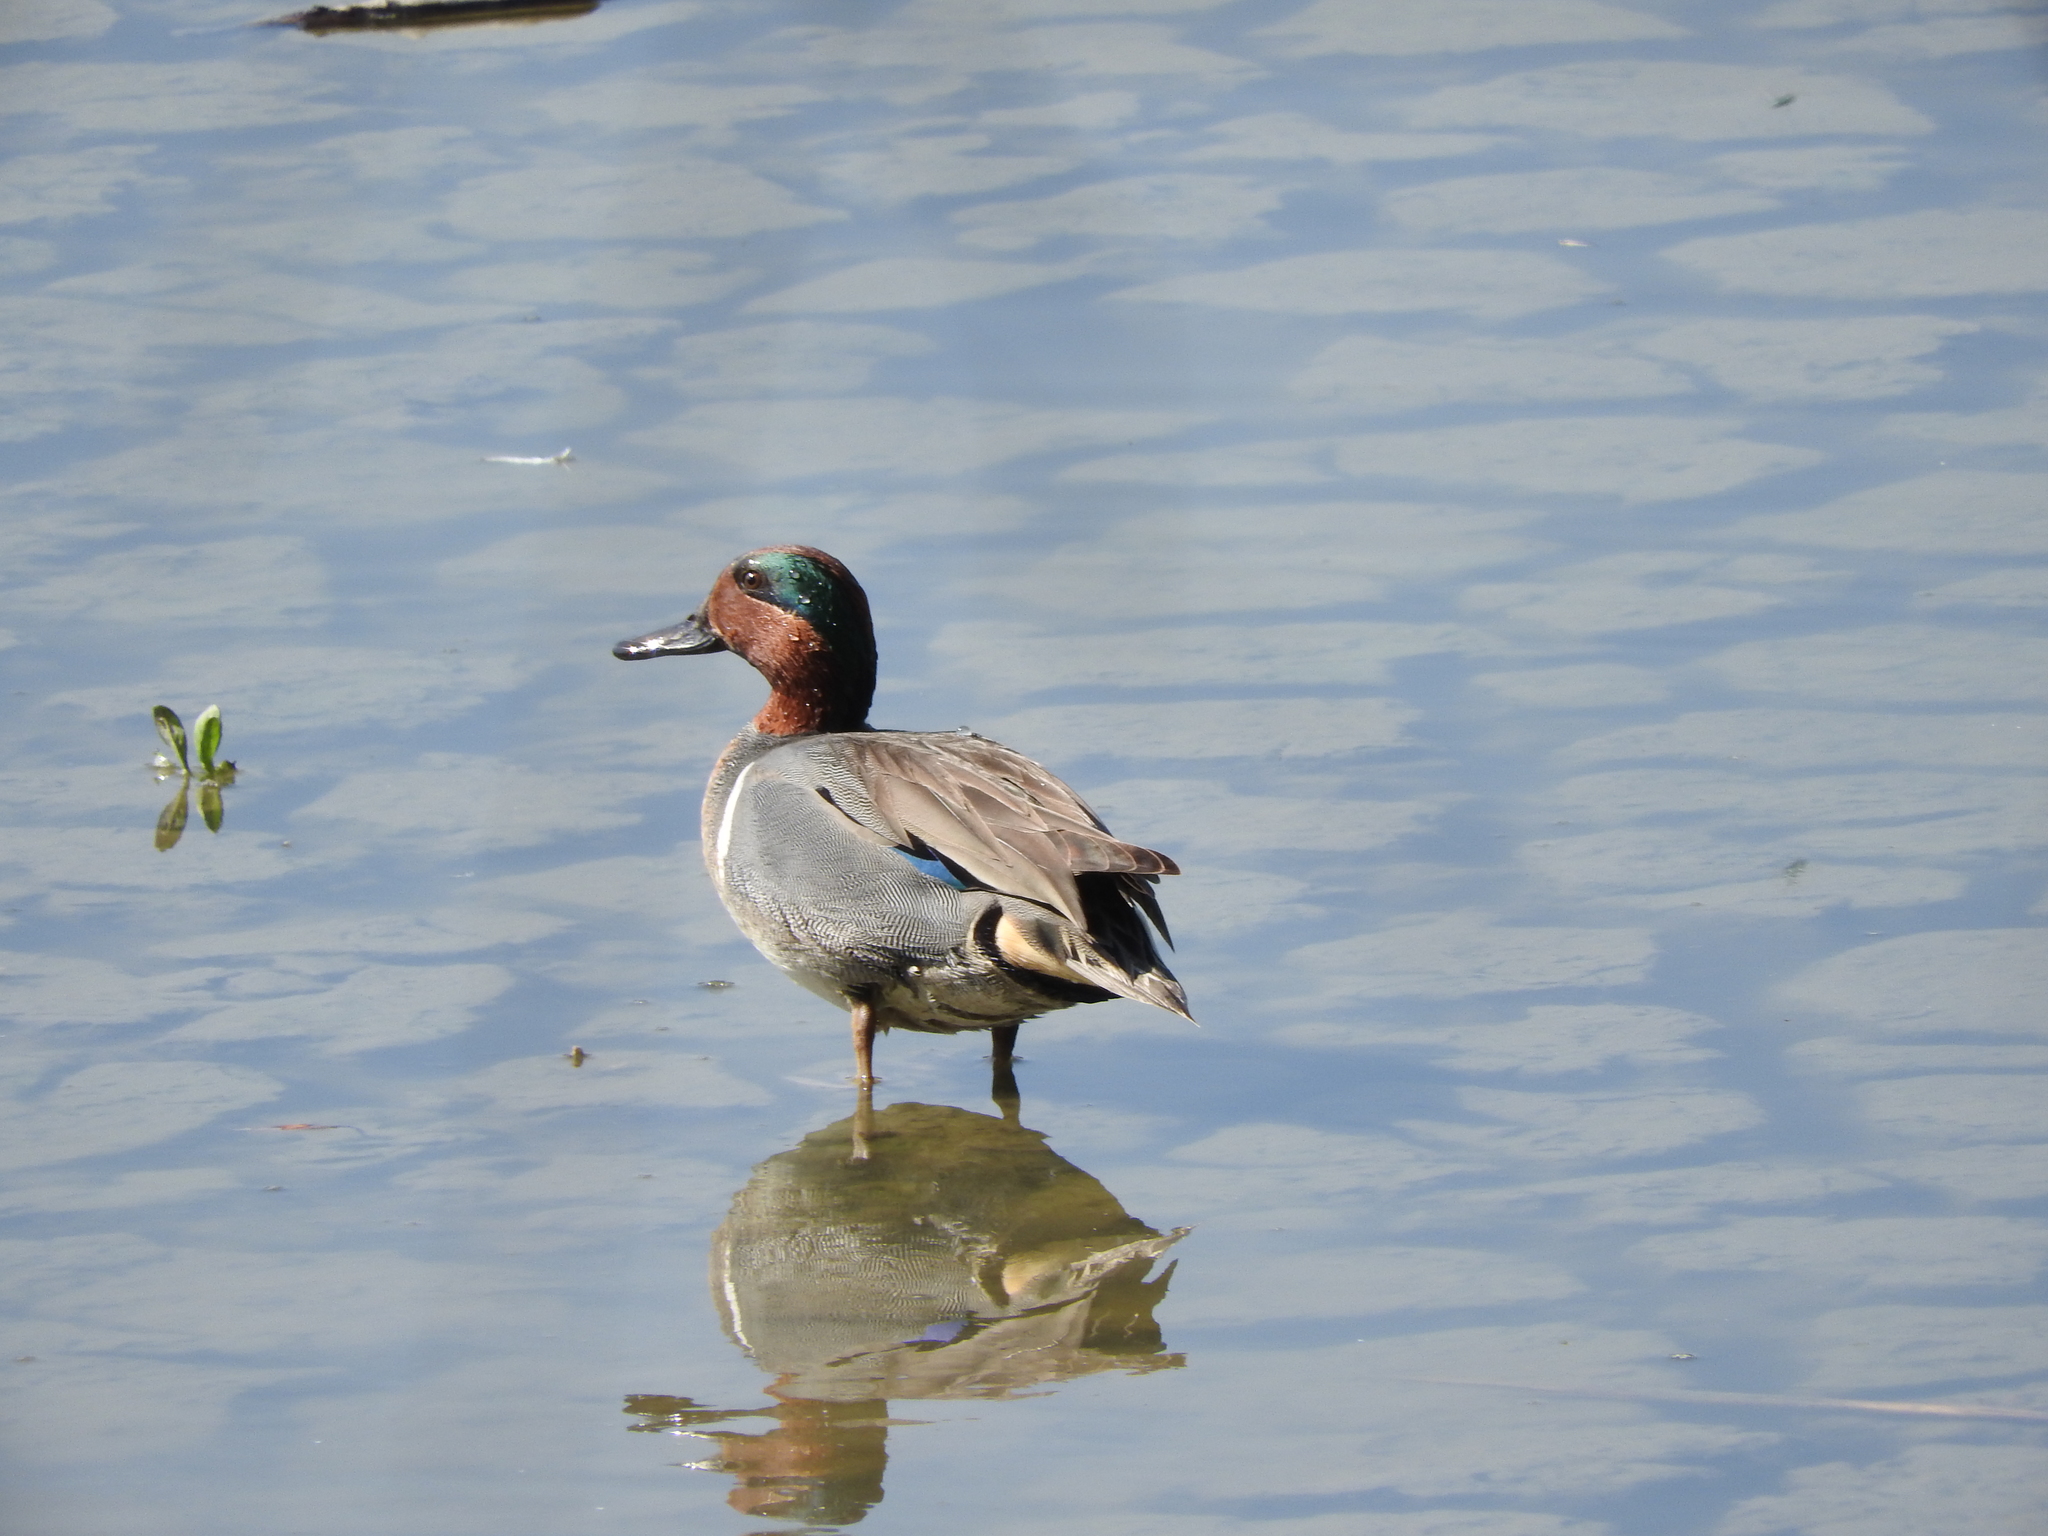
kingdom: Animalia
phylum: Chordata
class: Aves
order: Anseriformes
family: Anatidae
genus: Anas
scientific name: Anas carolinensis
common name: Green-winged teal
